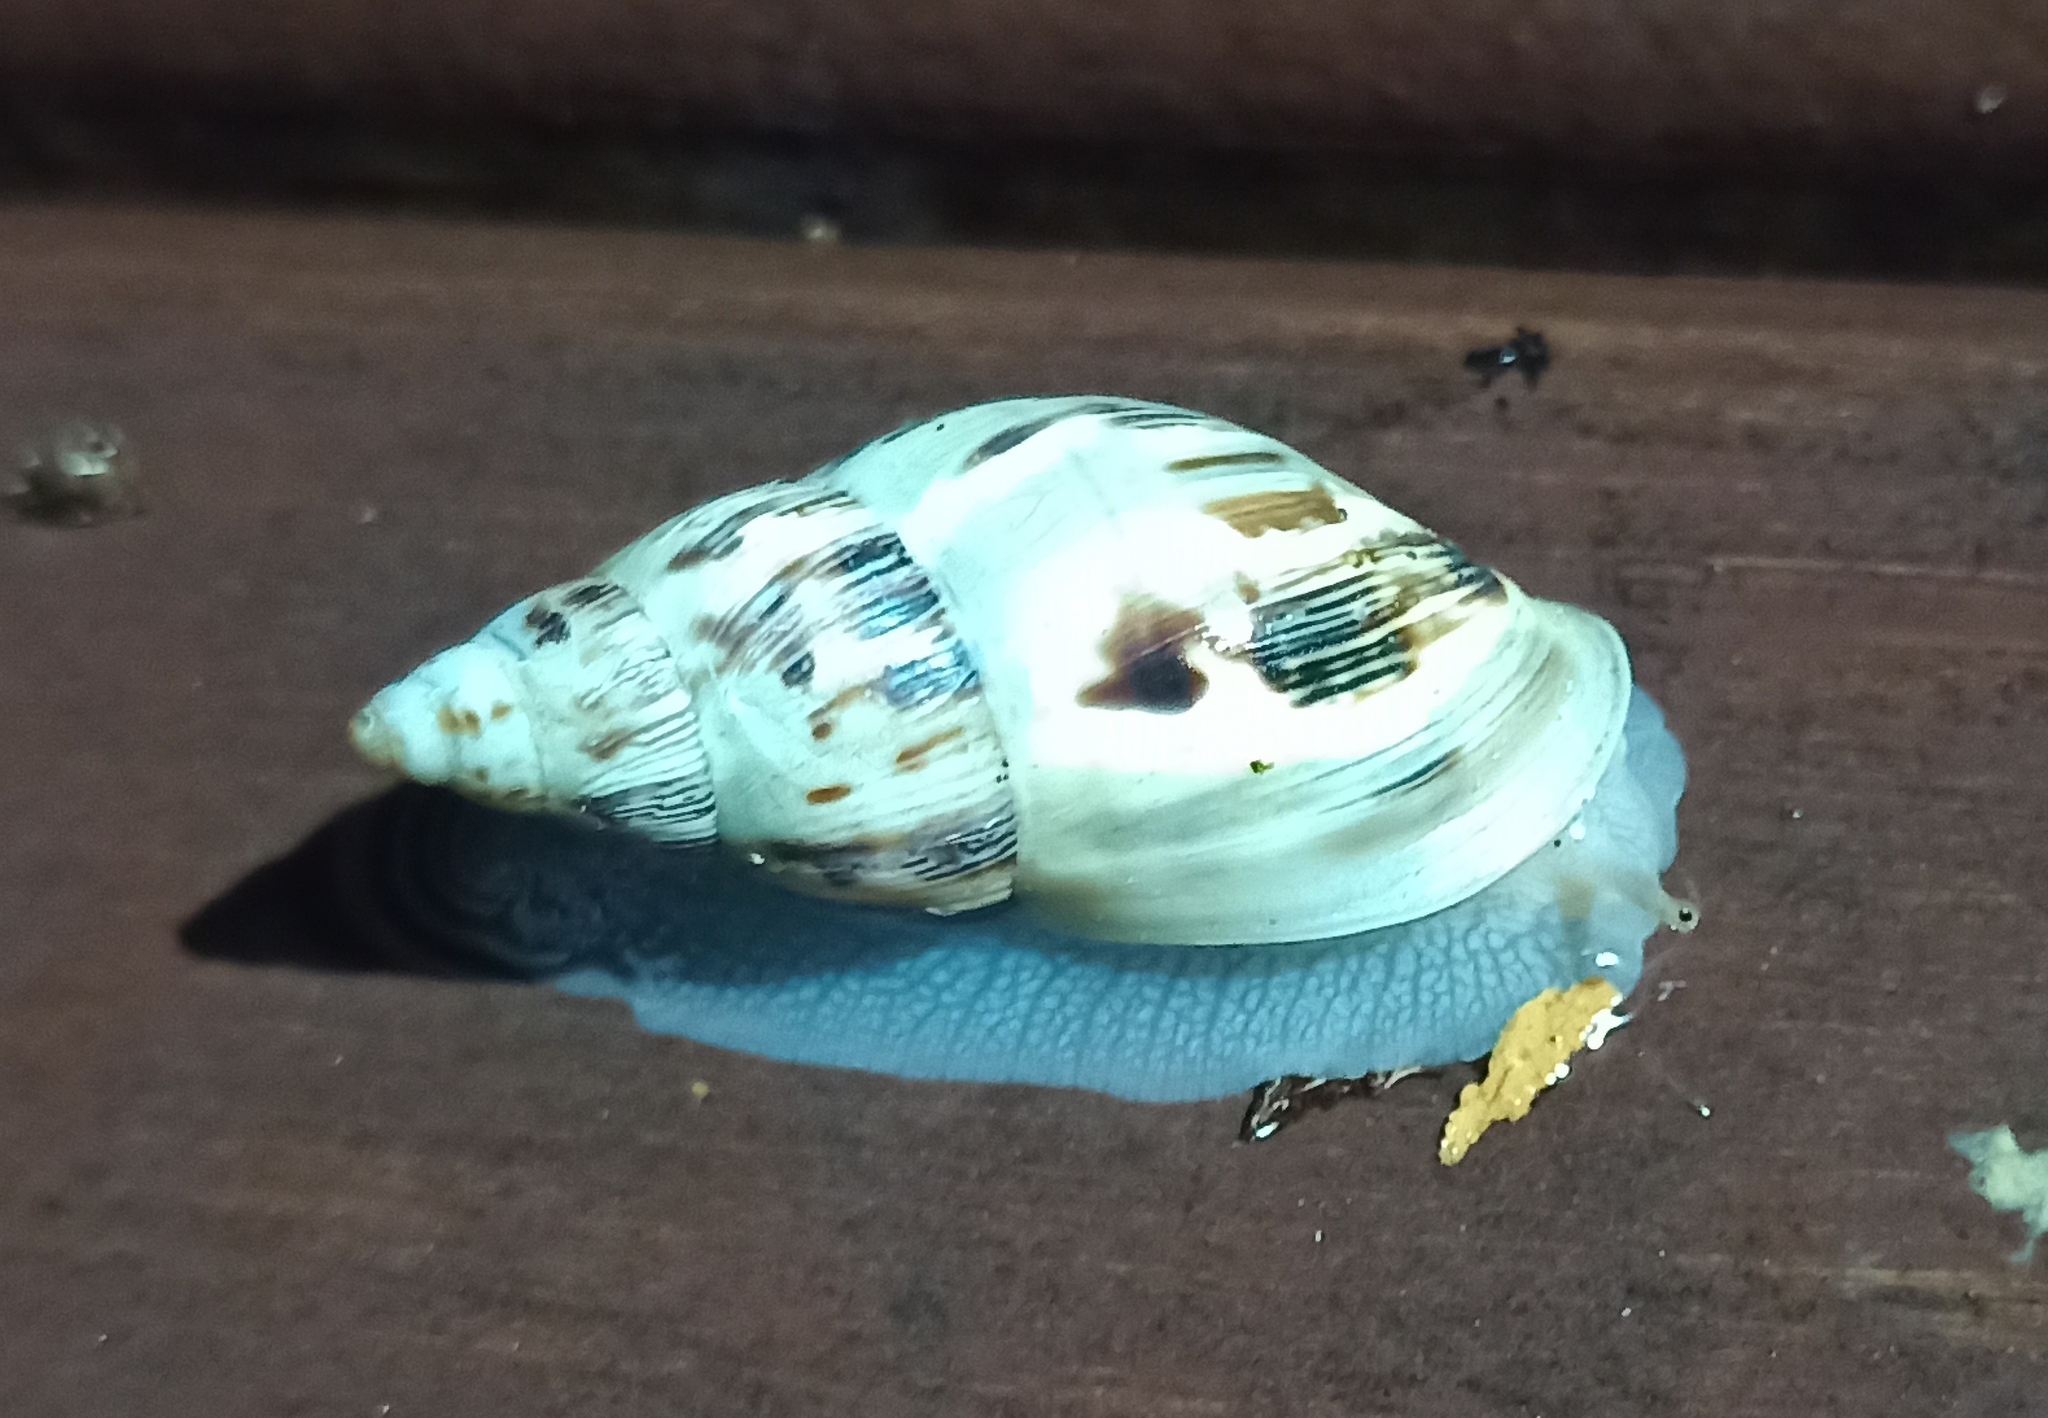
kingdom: Animalia
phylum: Mollusca
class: Gastropoda
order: Stylommatophora
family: Bulimulidae
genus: Drymaeus
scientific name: Drymaeus papyraceus
